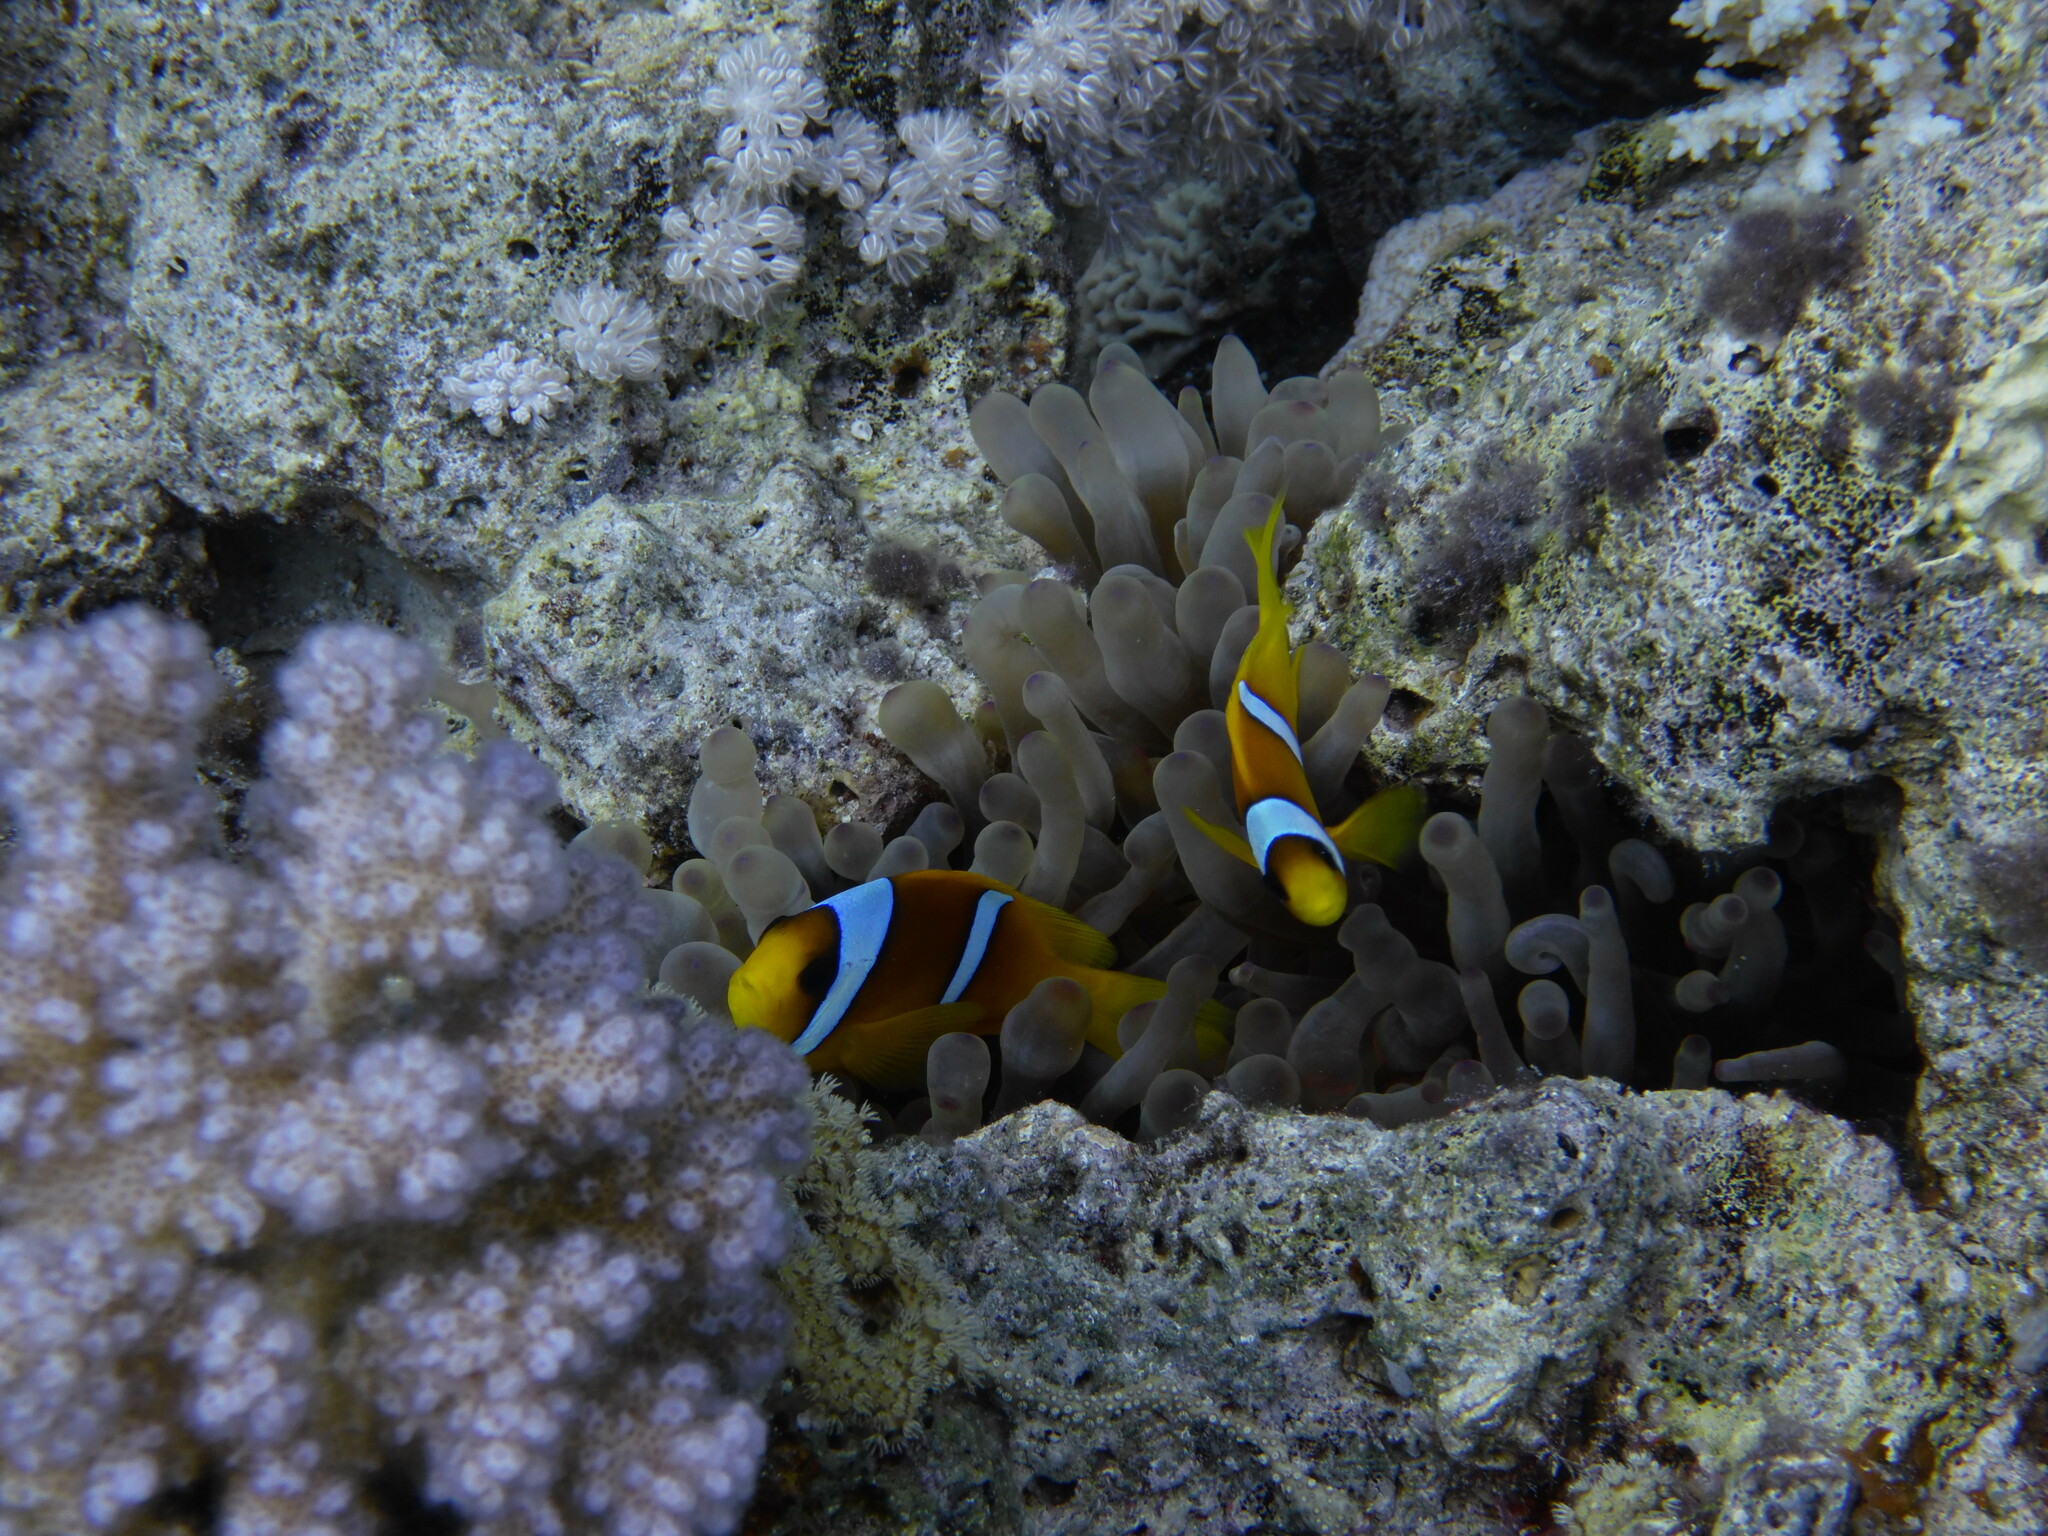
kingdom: Animalia
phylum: Cnidaria
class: Anthozoa
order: Actiniaria
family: Actiniidae
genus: Entacmaea
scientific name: Entacmaea quadricolor
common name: Bulb tentacle sea anemone
